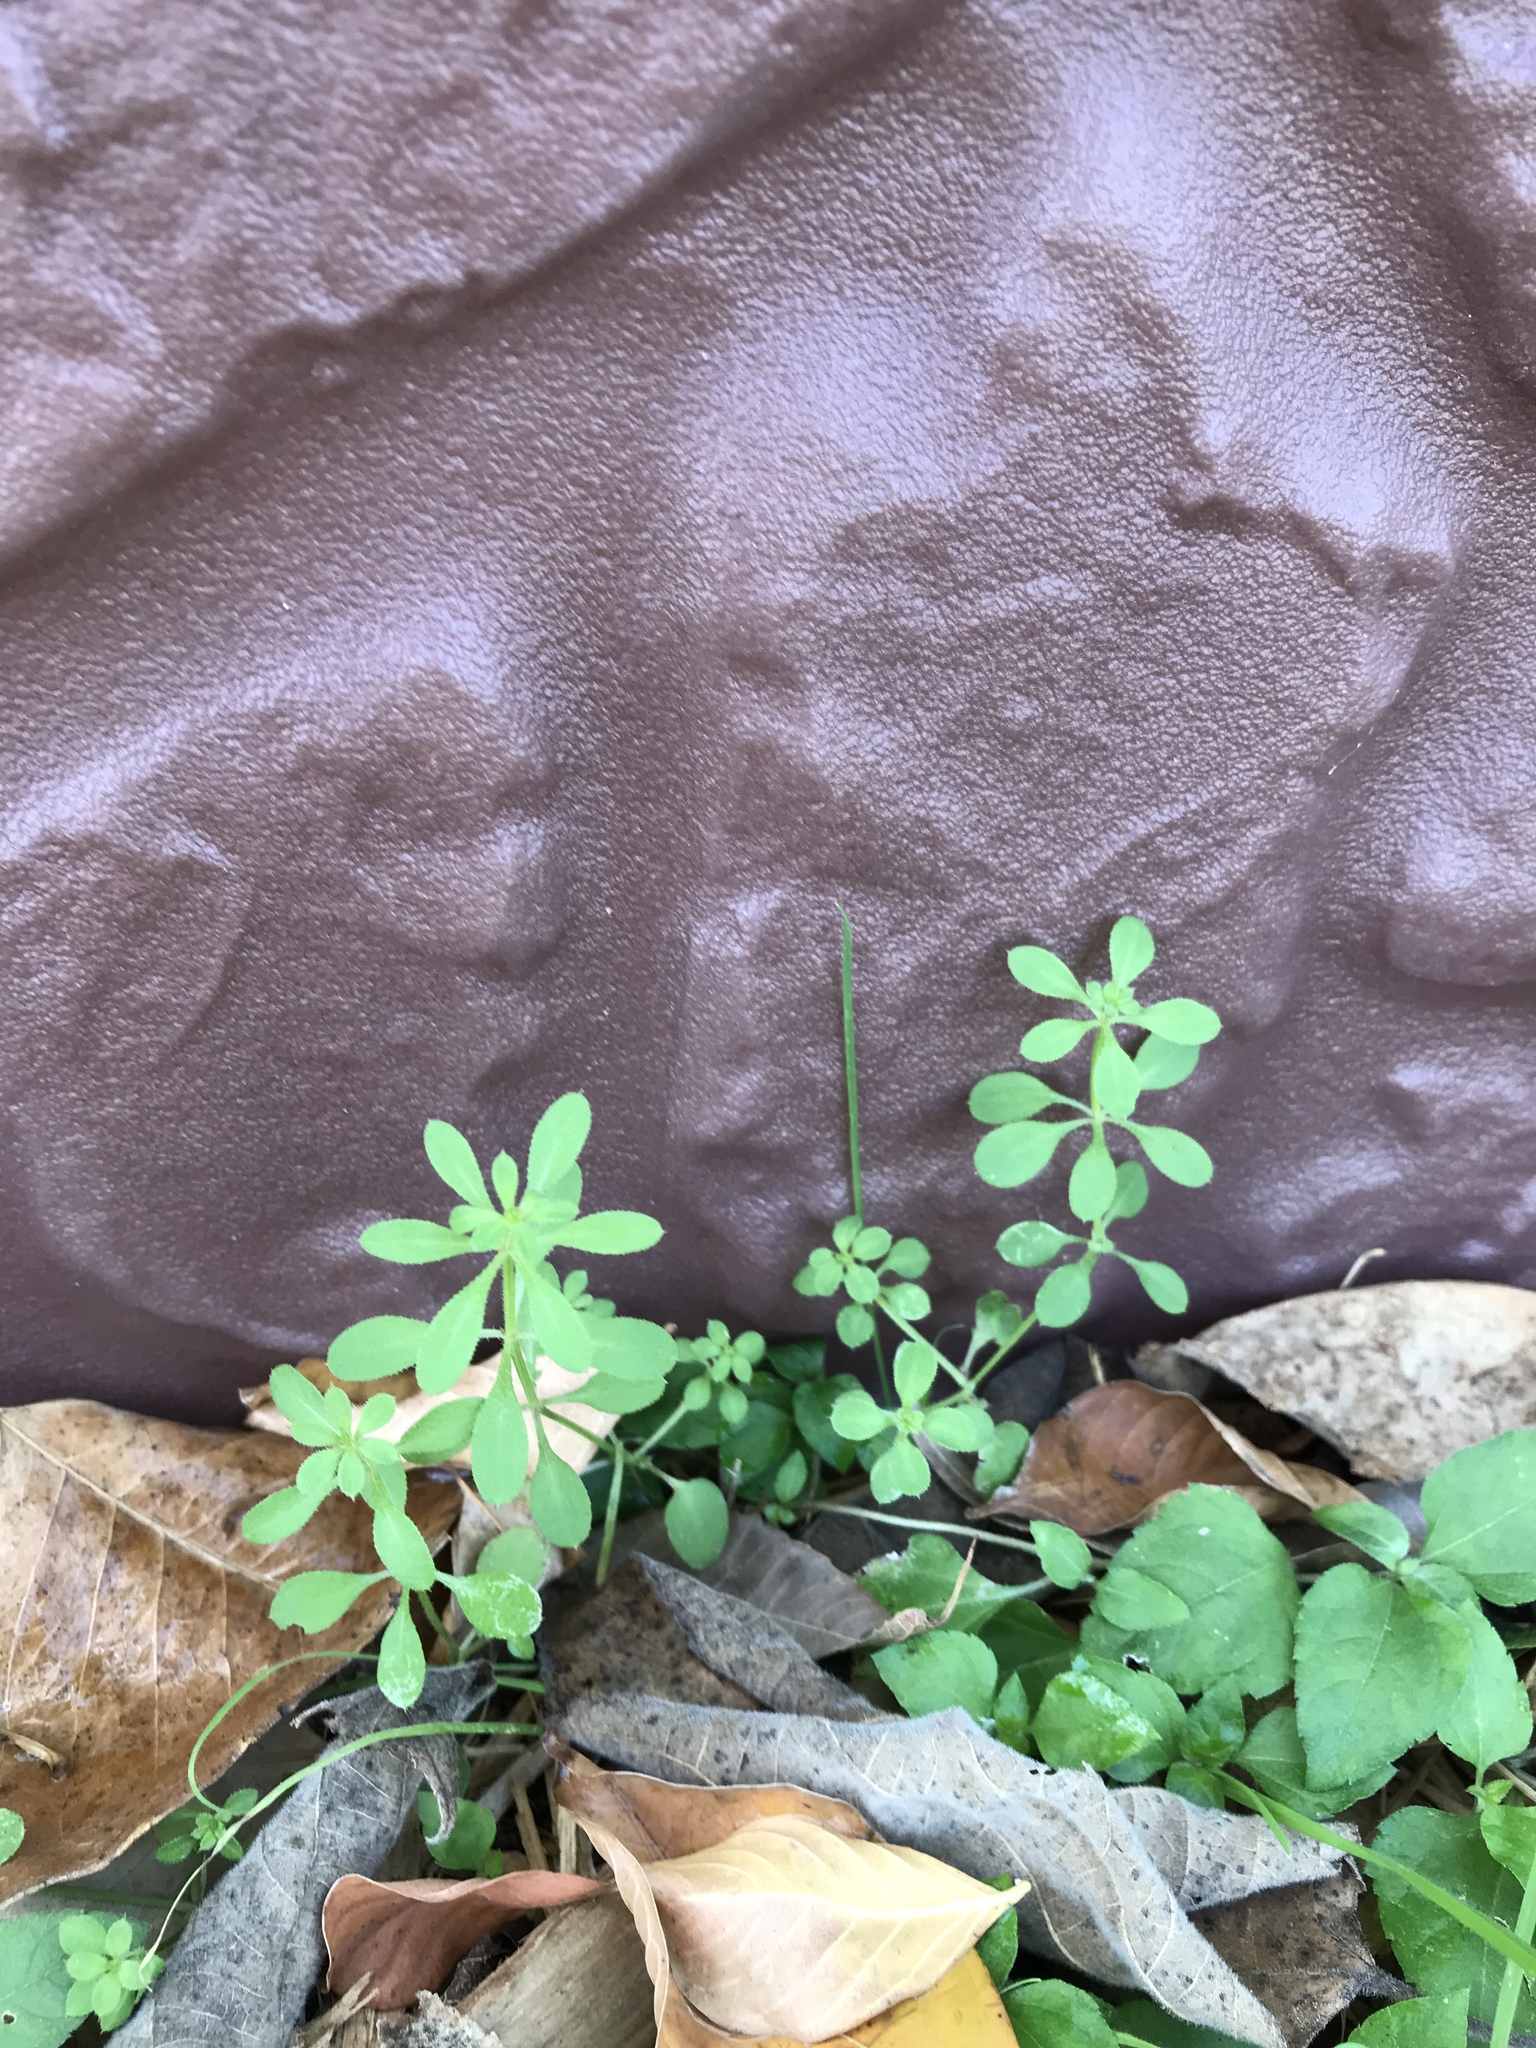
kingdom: Plantae
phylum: Tracheophyta
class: Magnoliopsida
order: Gentianales
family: Rubiaceae
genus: Galium
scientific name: Galium aparine
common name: Cleavers
